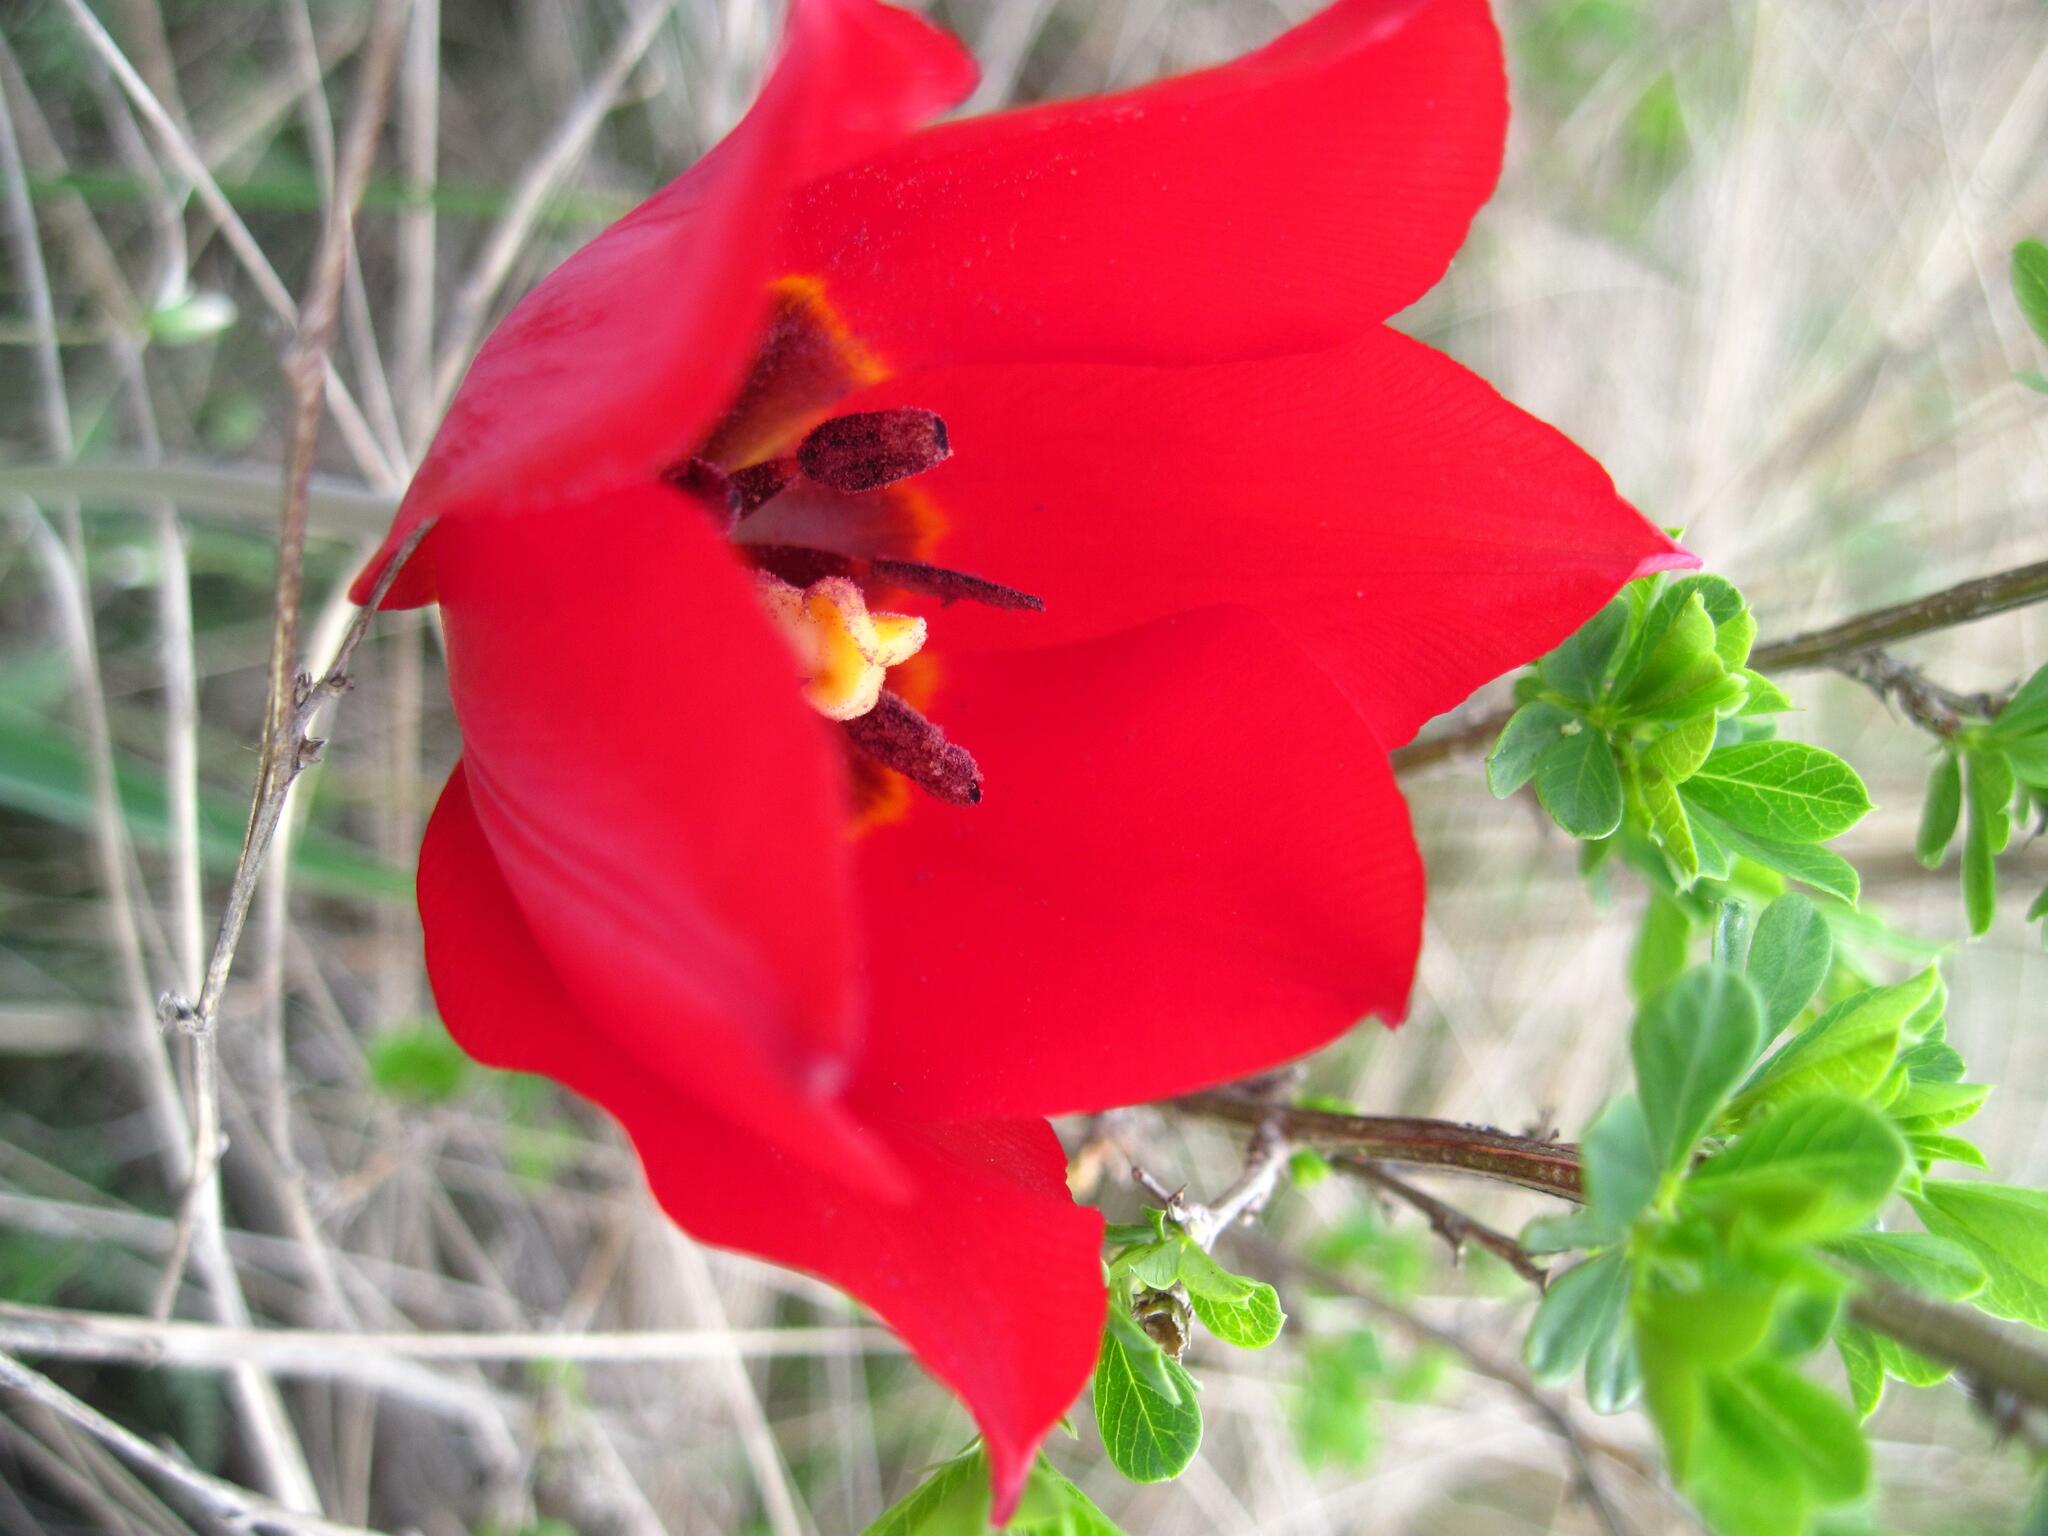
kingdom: Plantae
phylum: Tracheophyta
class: Liliopsida
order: Liliales
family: Liliaceae
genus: Tulipa
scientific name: Tulipa suaveolens
